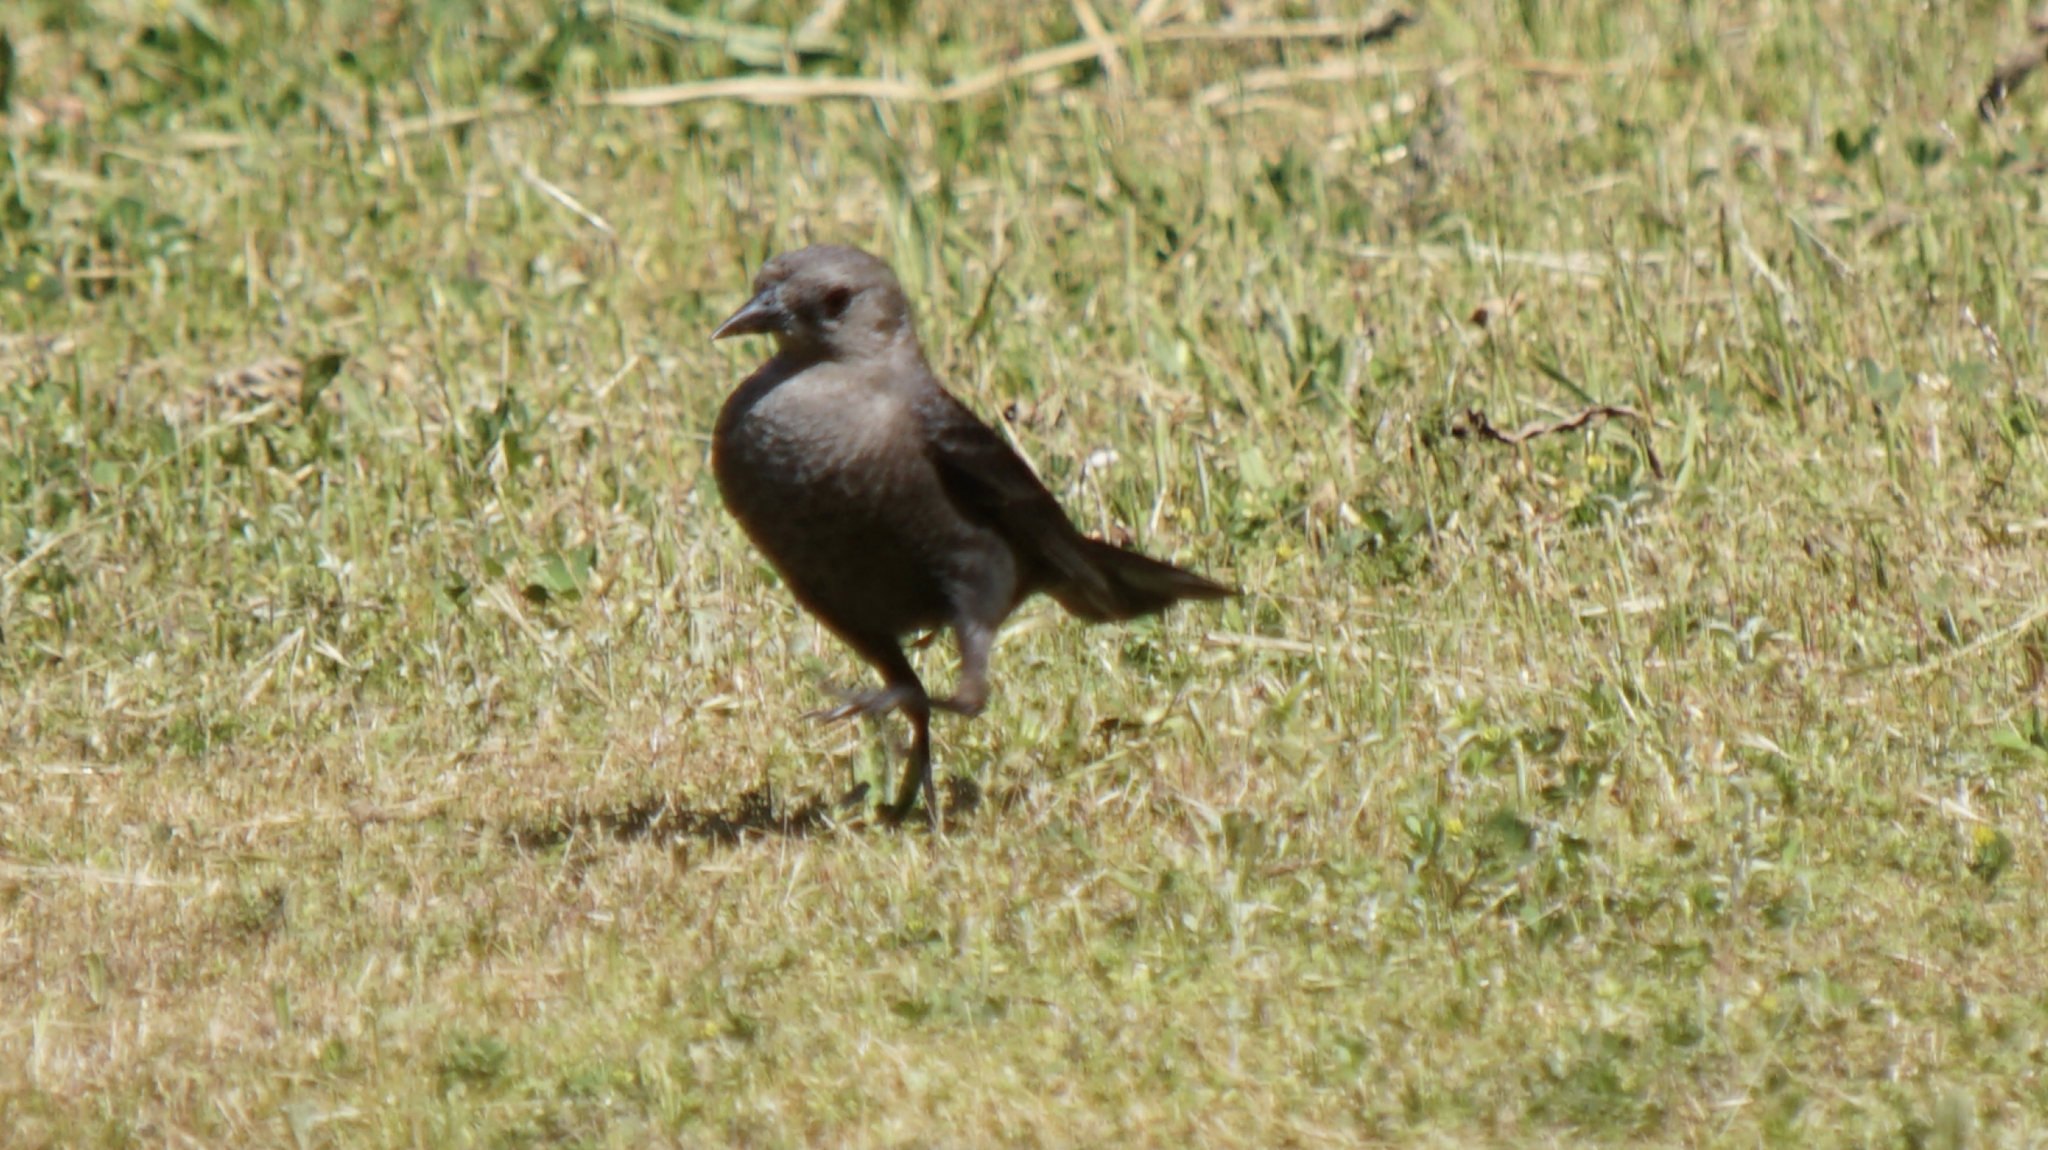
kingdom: Animalia
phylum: Chordata
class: Aves
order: Passeriformes
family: Icteridae
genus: Euphagus
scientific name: Euphagus cyanocephalus
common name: Brewer's blackbird
